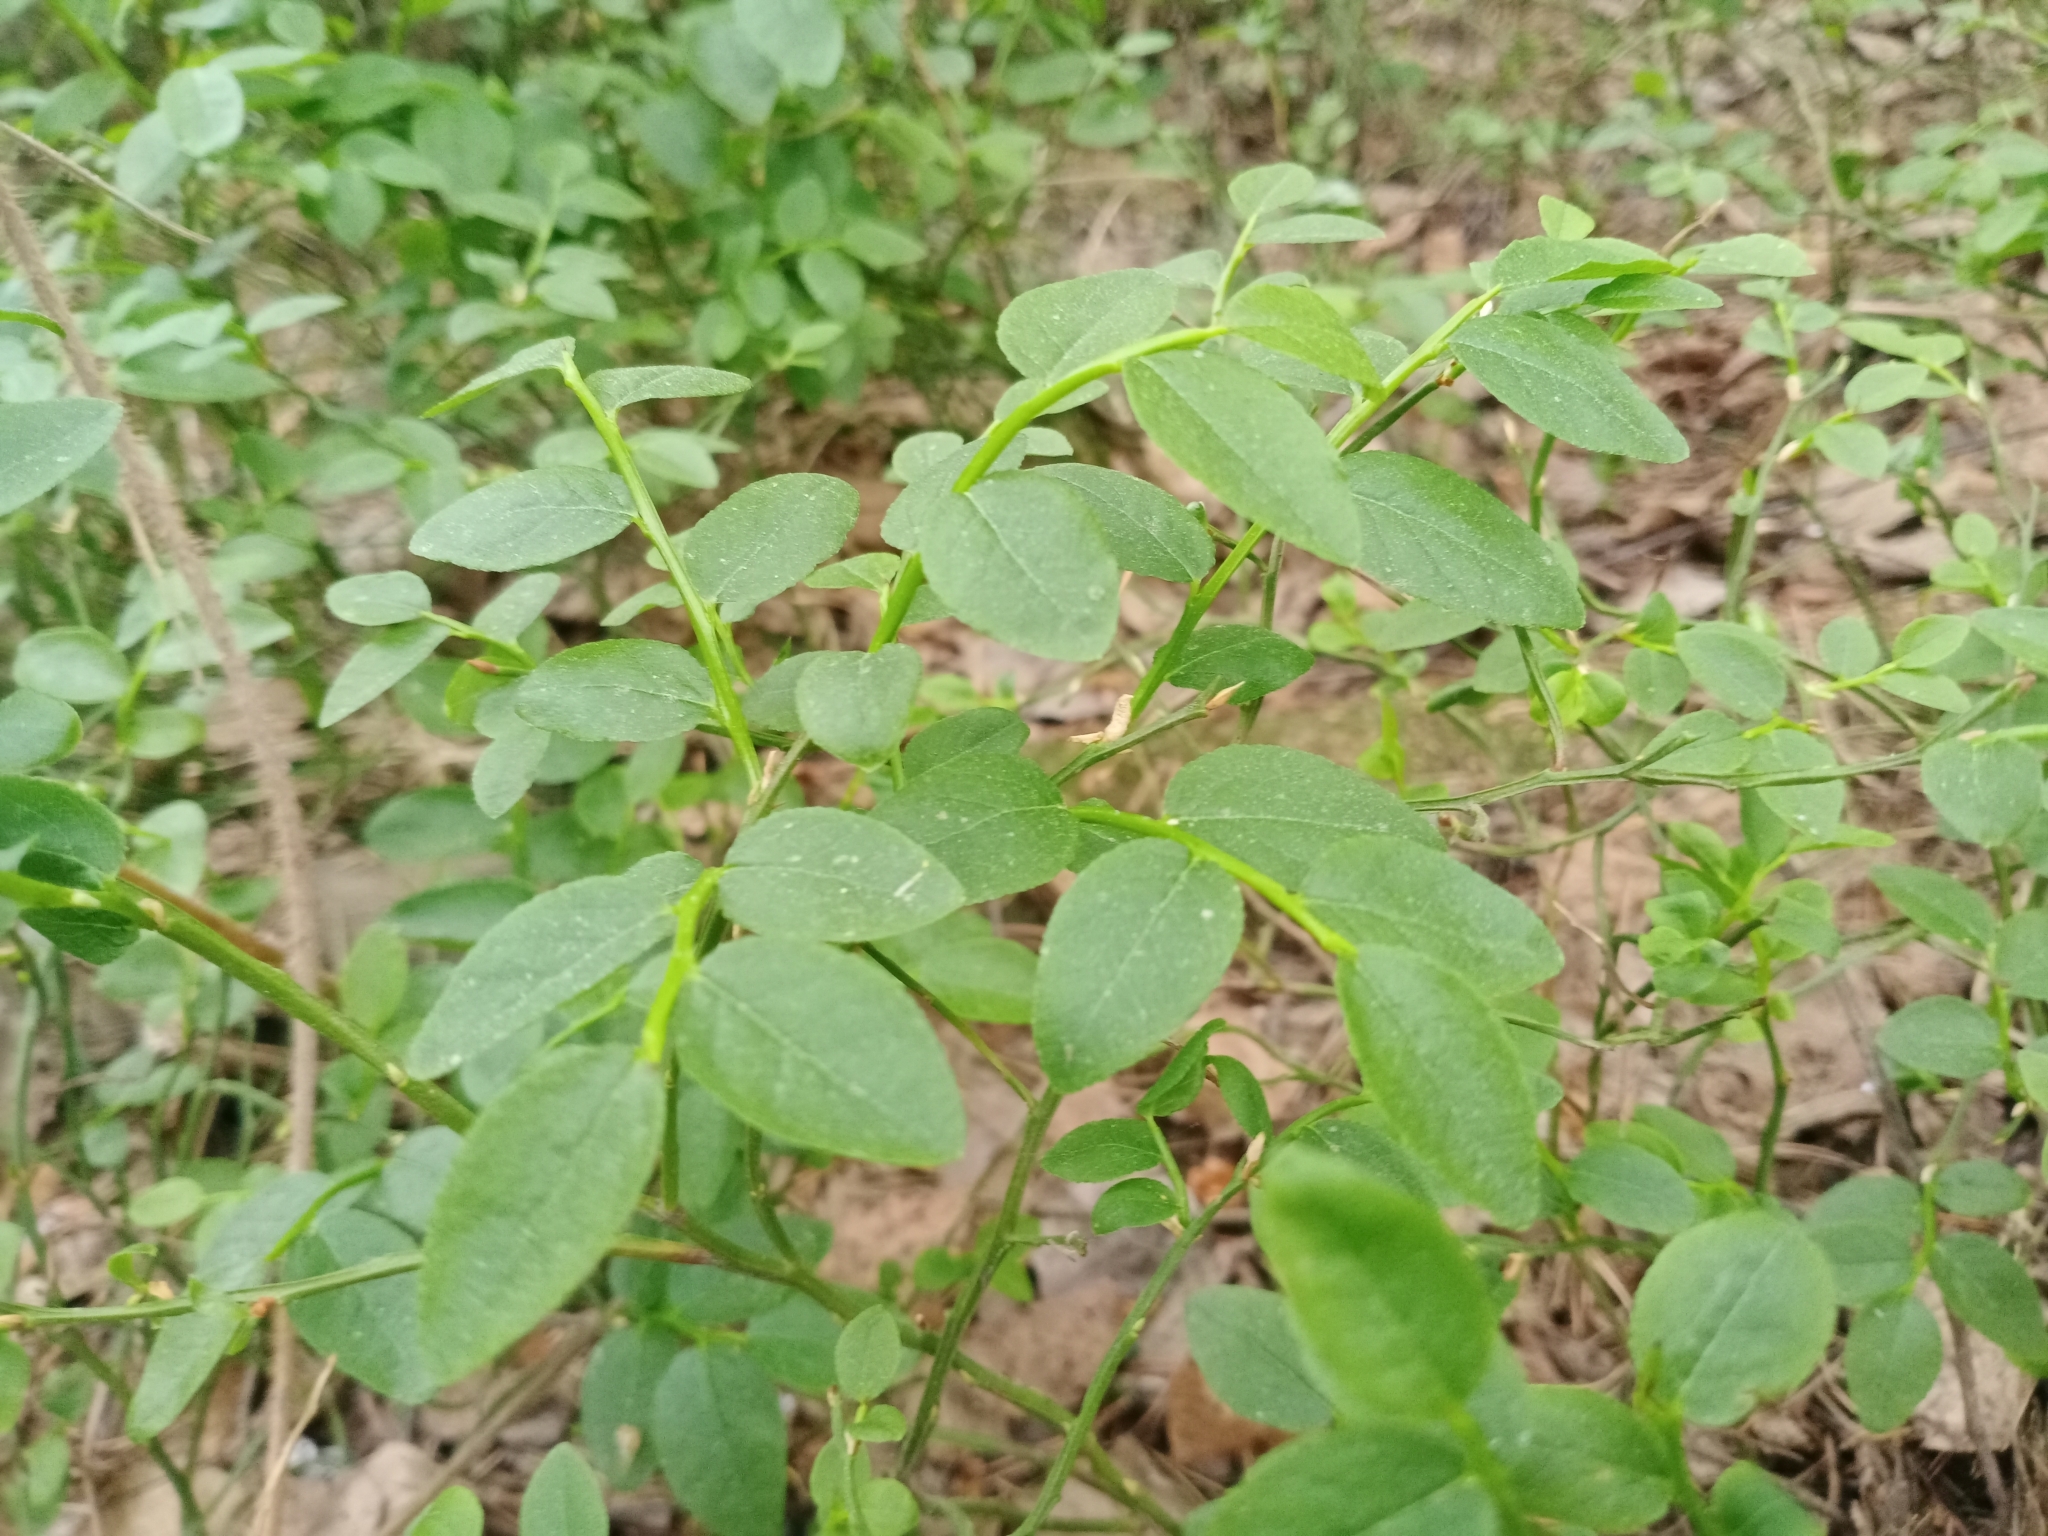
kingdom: Plantae
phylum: Tracheophyta
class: Magnoliopsida
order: Ericales
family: Ericaceae
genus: Vaccinium
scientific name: Vaccinium myrtillus
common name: Bilberry
